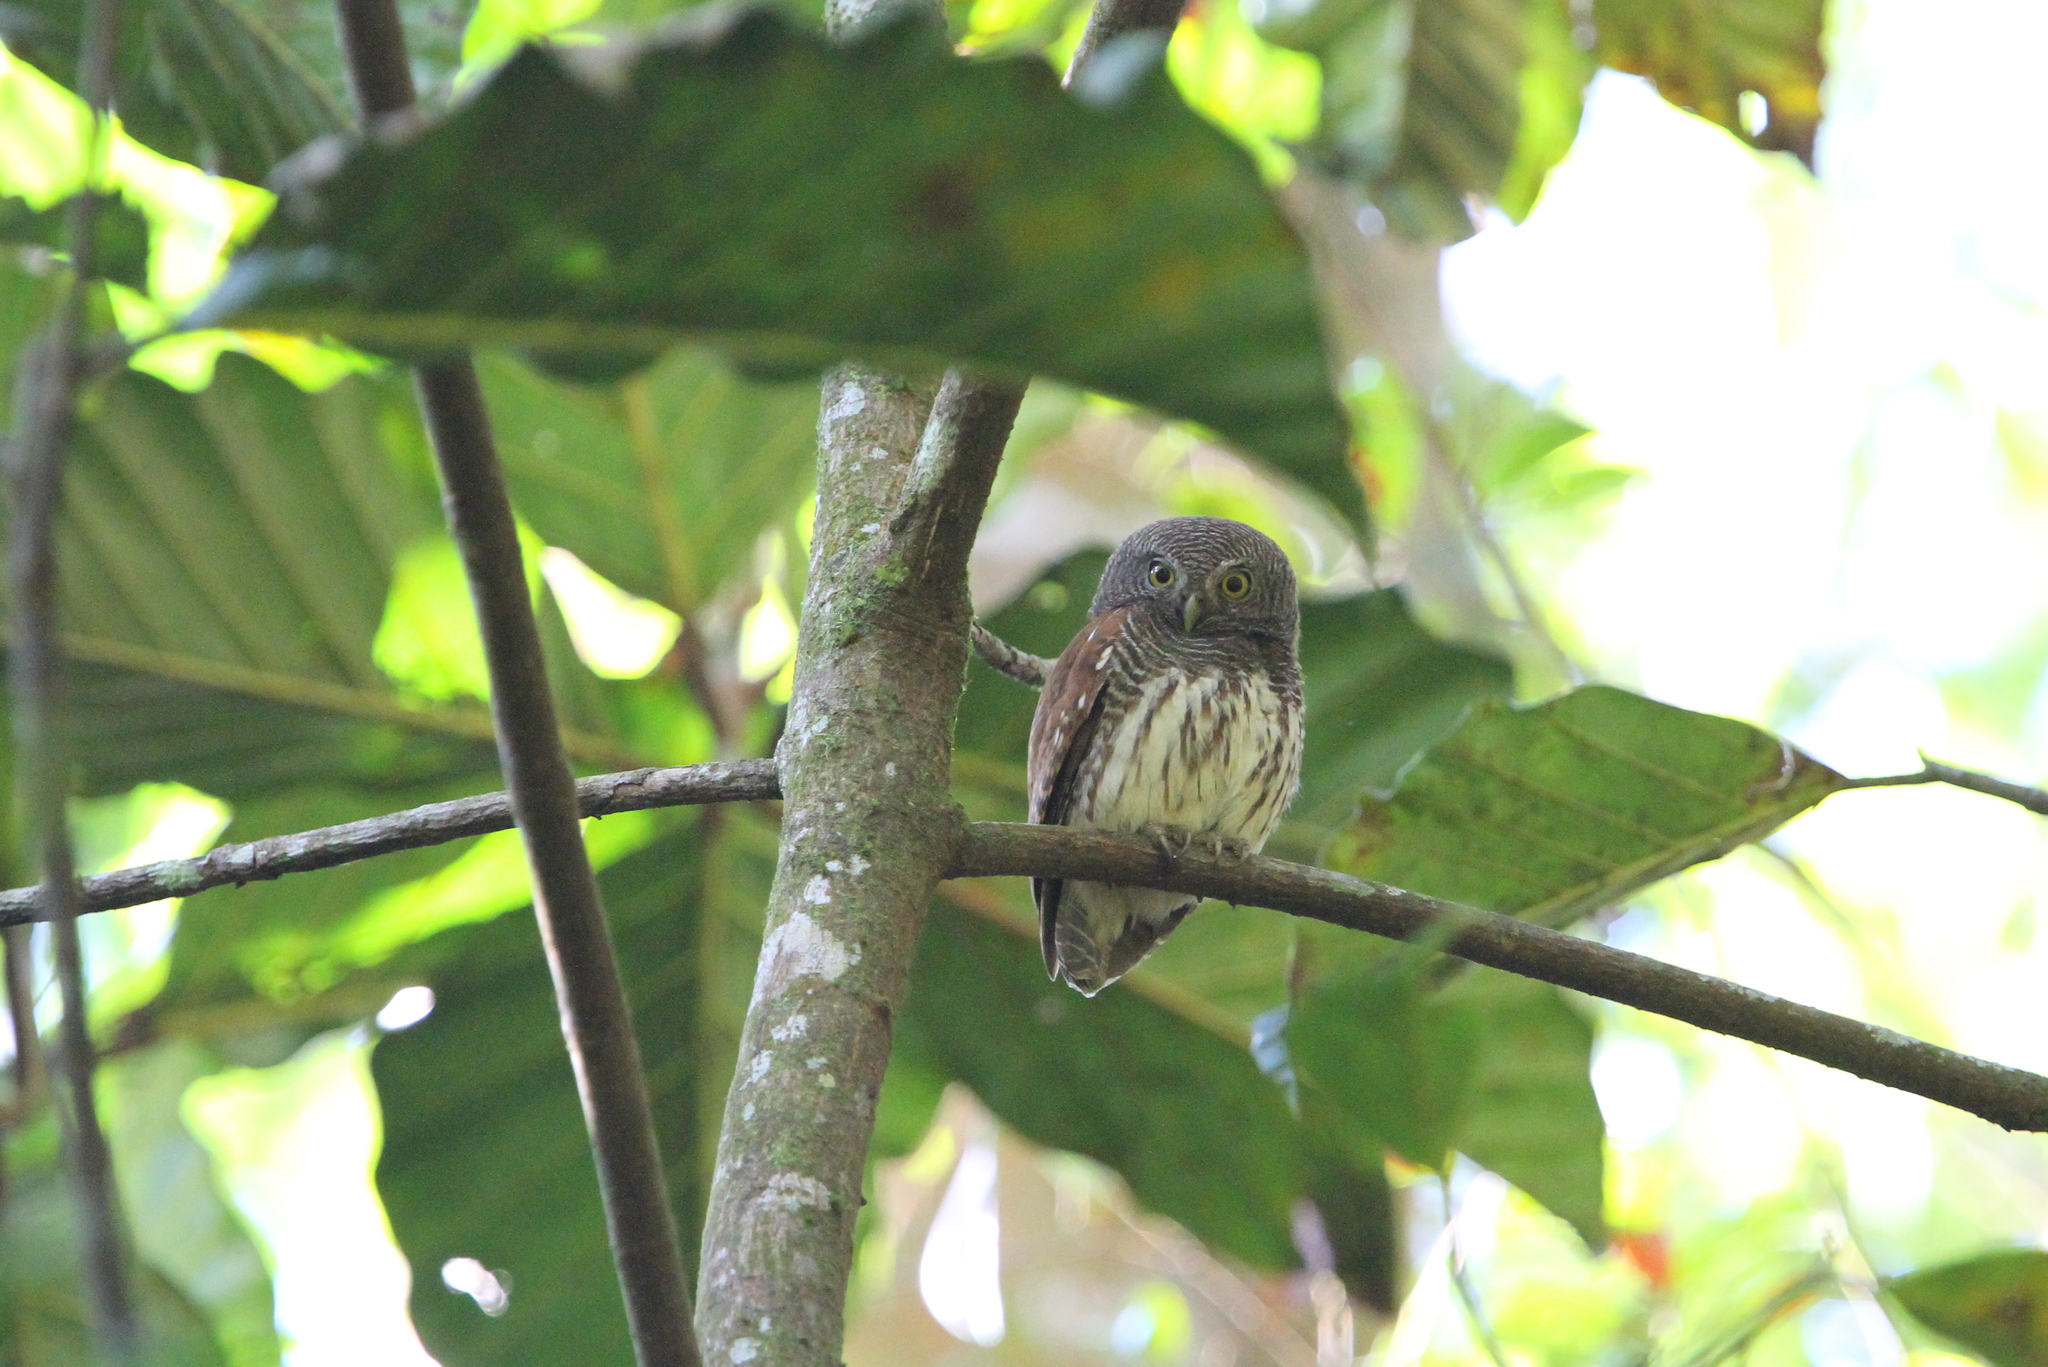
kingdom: Animalia
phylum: Chordata
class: Aves
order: Strigiformes
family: Strigidae
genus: Glaucidium
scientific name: Glaucidium castanotum
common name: Chestnut-backed owlet
